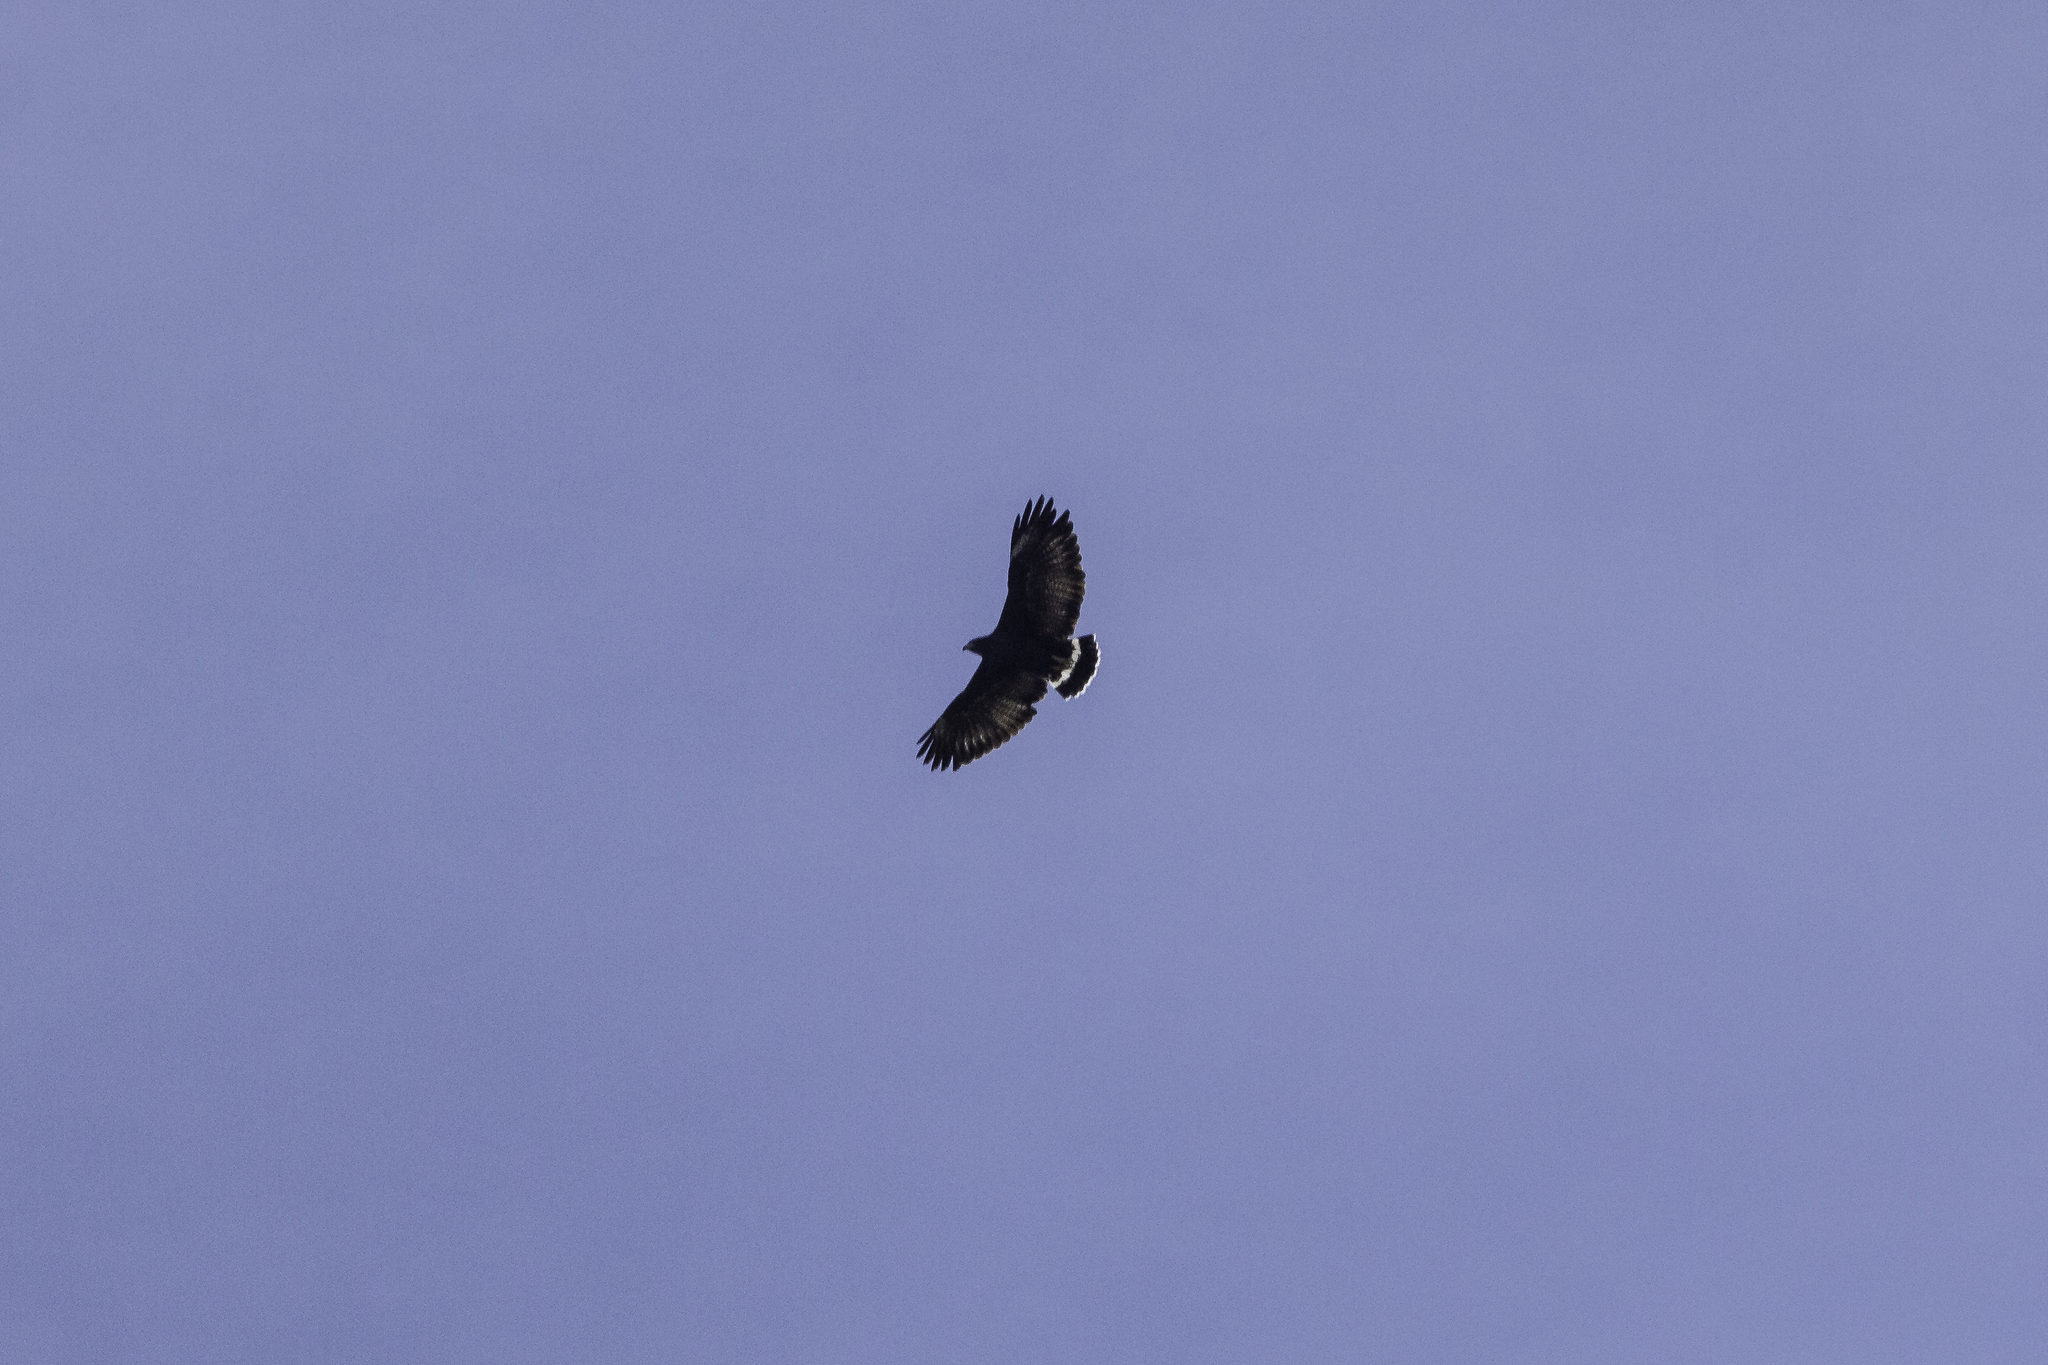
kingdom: Animalia
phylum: Chordata
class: Aves
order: Accipitriformes
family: Accipitridae
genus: Buteogallus
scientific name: Buteogallus anthracinus
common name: Common black hawk
